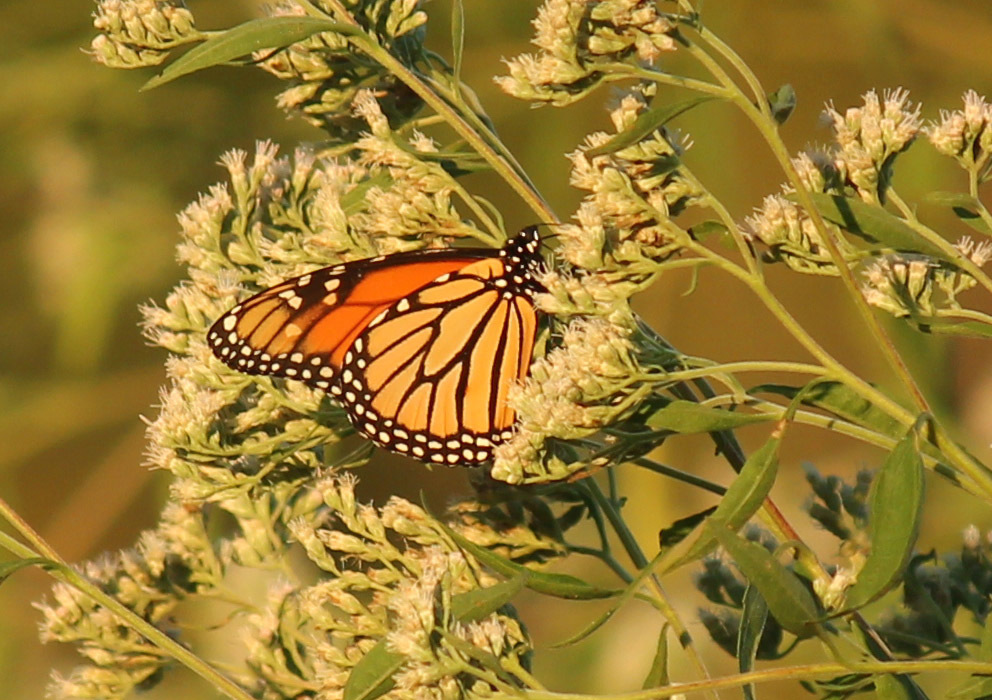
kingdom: Animalia
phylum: Arthropoda
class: Insecta
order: Lepidoptera
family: Nymphalidae
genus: Danaus
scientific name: Danaus plexippus
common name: Monarch
